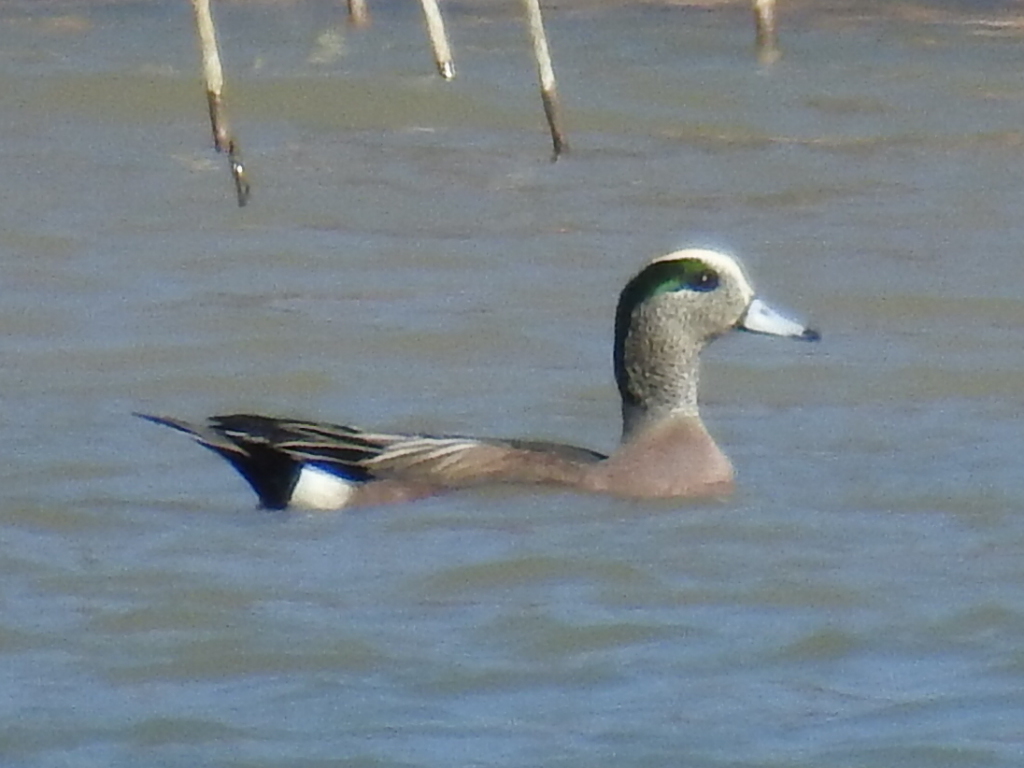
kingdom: Animalia
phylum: Chordata
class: Aves
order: Anseriformes
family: Anatidae
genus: Mareca
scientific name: Mareca americana
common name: American wigeon
